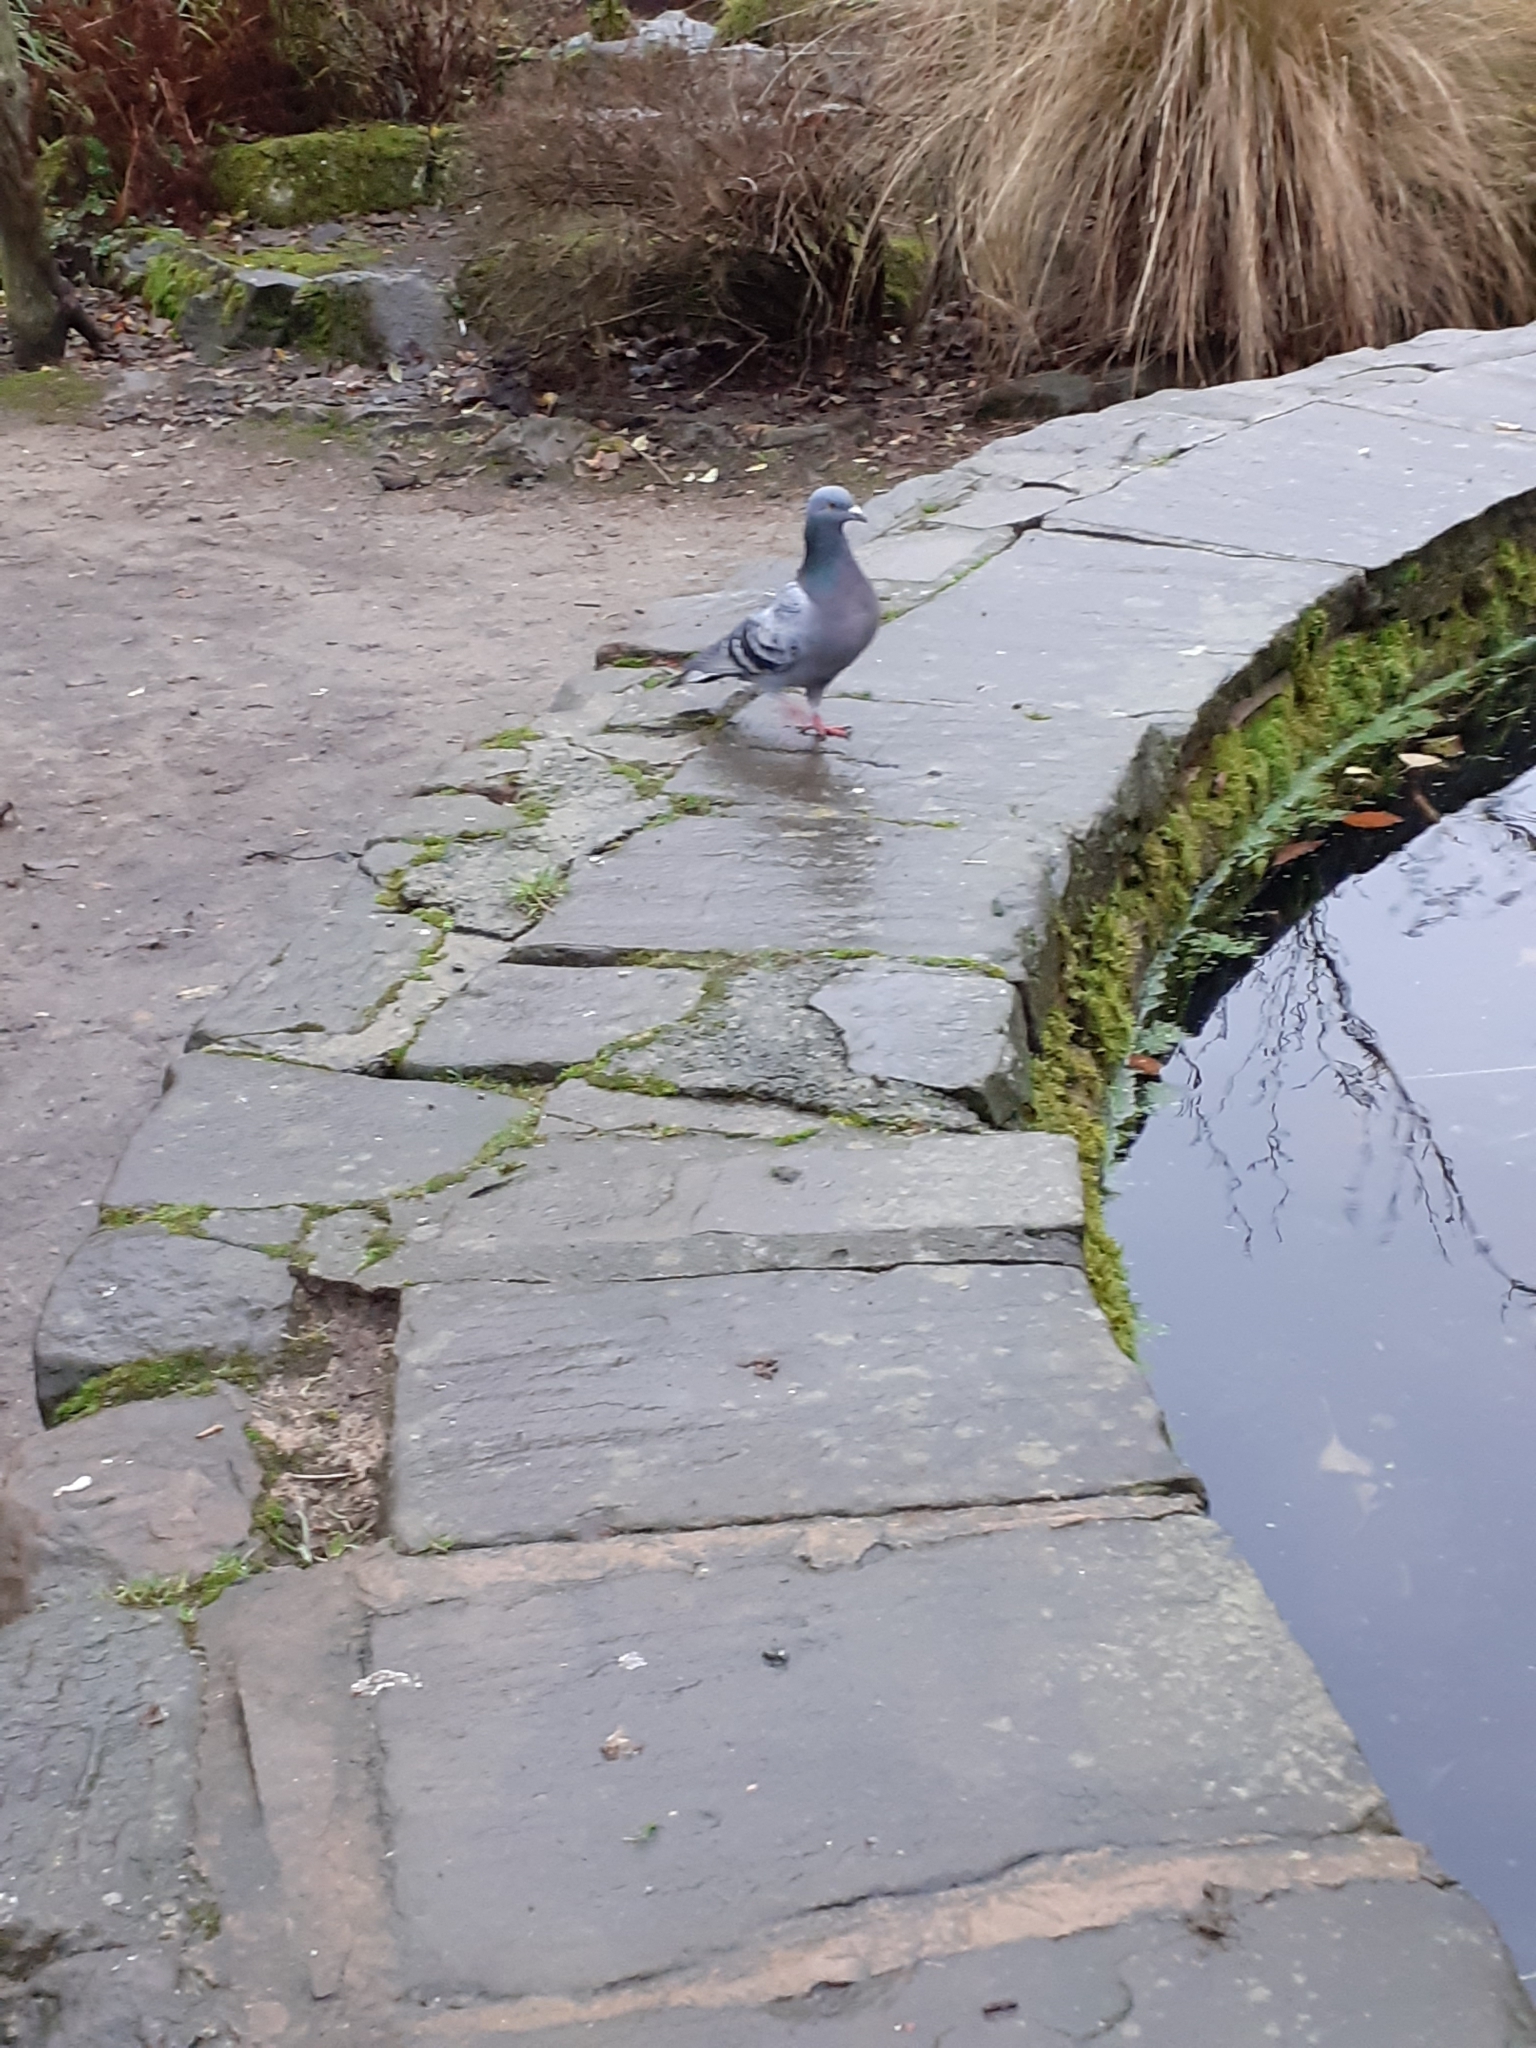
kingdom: Animalia
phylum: Chordata
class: Aves
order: Columbiformes
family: Columbidae
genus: Columba
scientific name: Columba livia
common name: Rock pigeon
